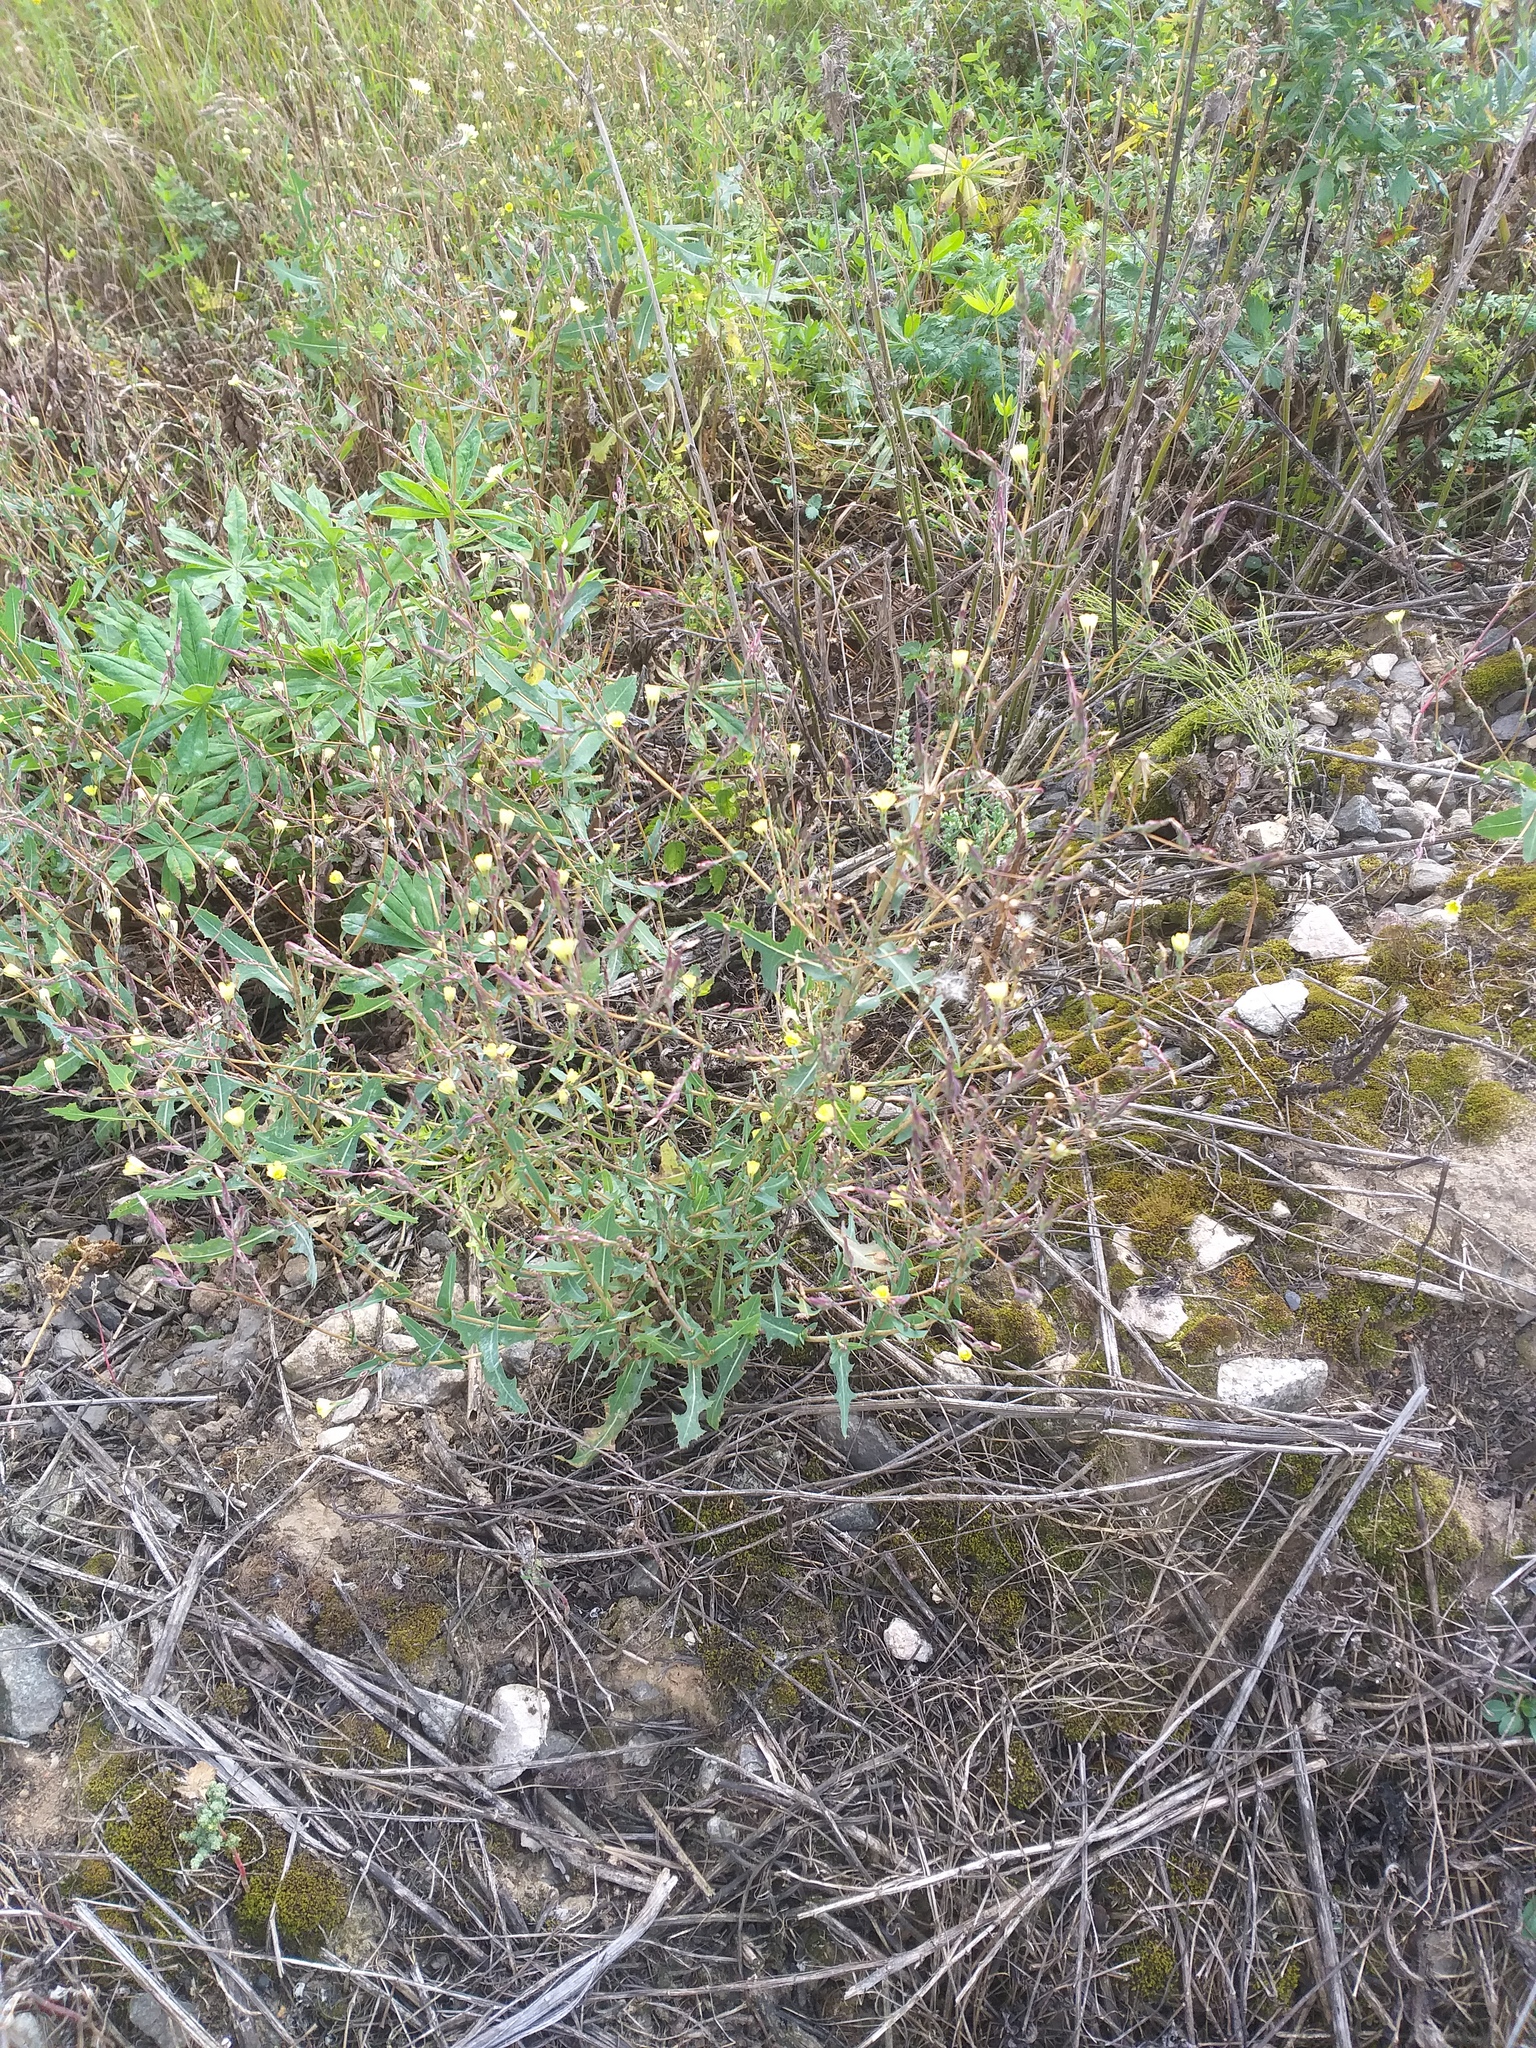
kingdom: Plantae
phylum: Tracheophyta
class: Magnoliopsida
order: Asterales
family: Asteraceae
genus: Lactuca
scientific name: Lactuca serriola
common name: Prickly lettuce
